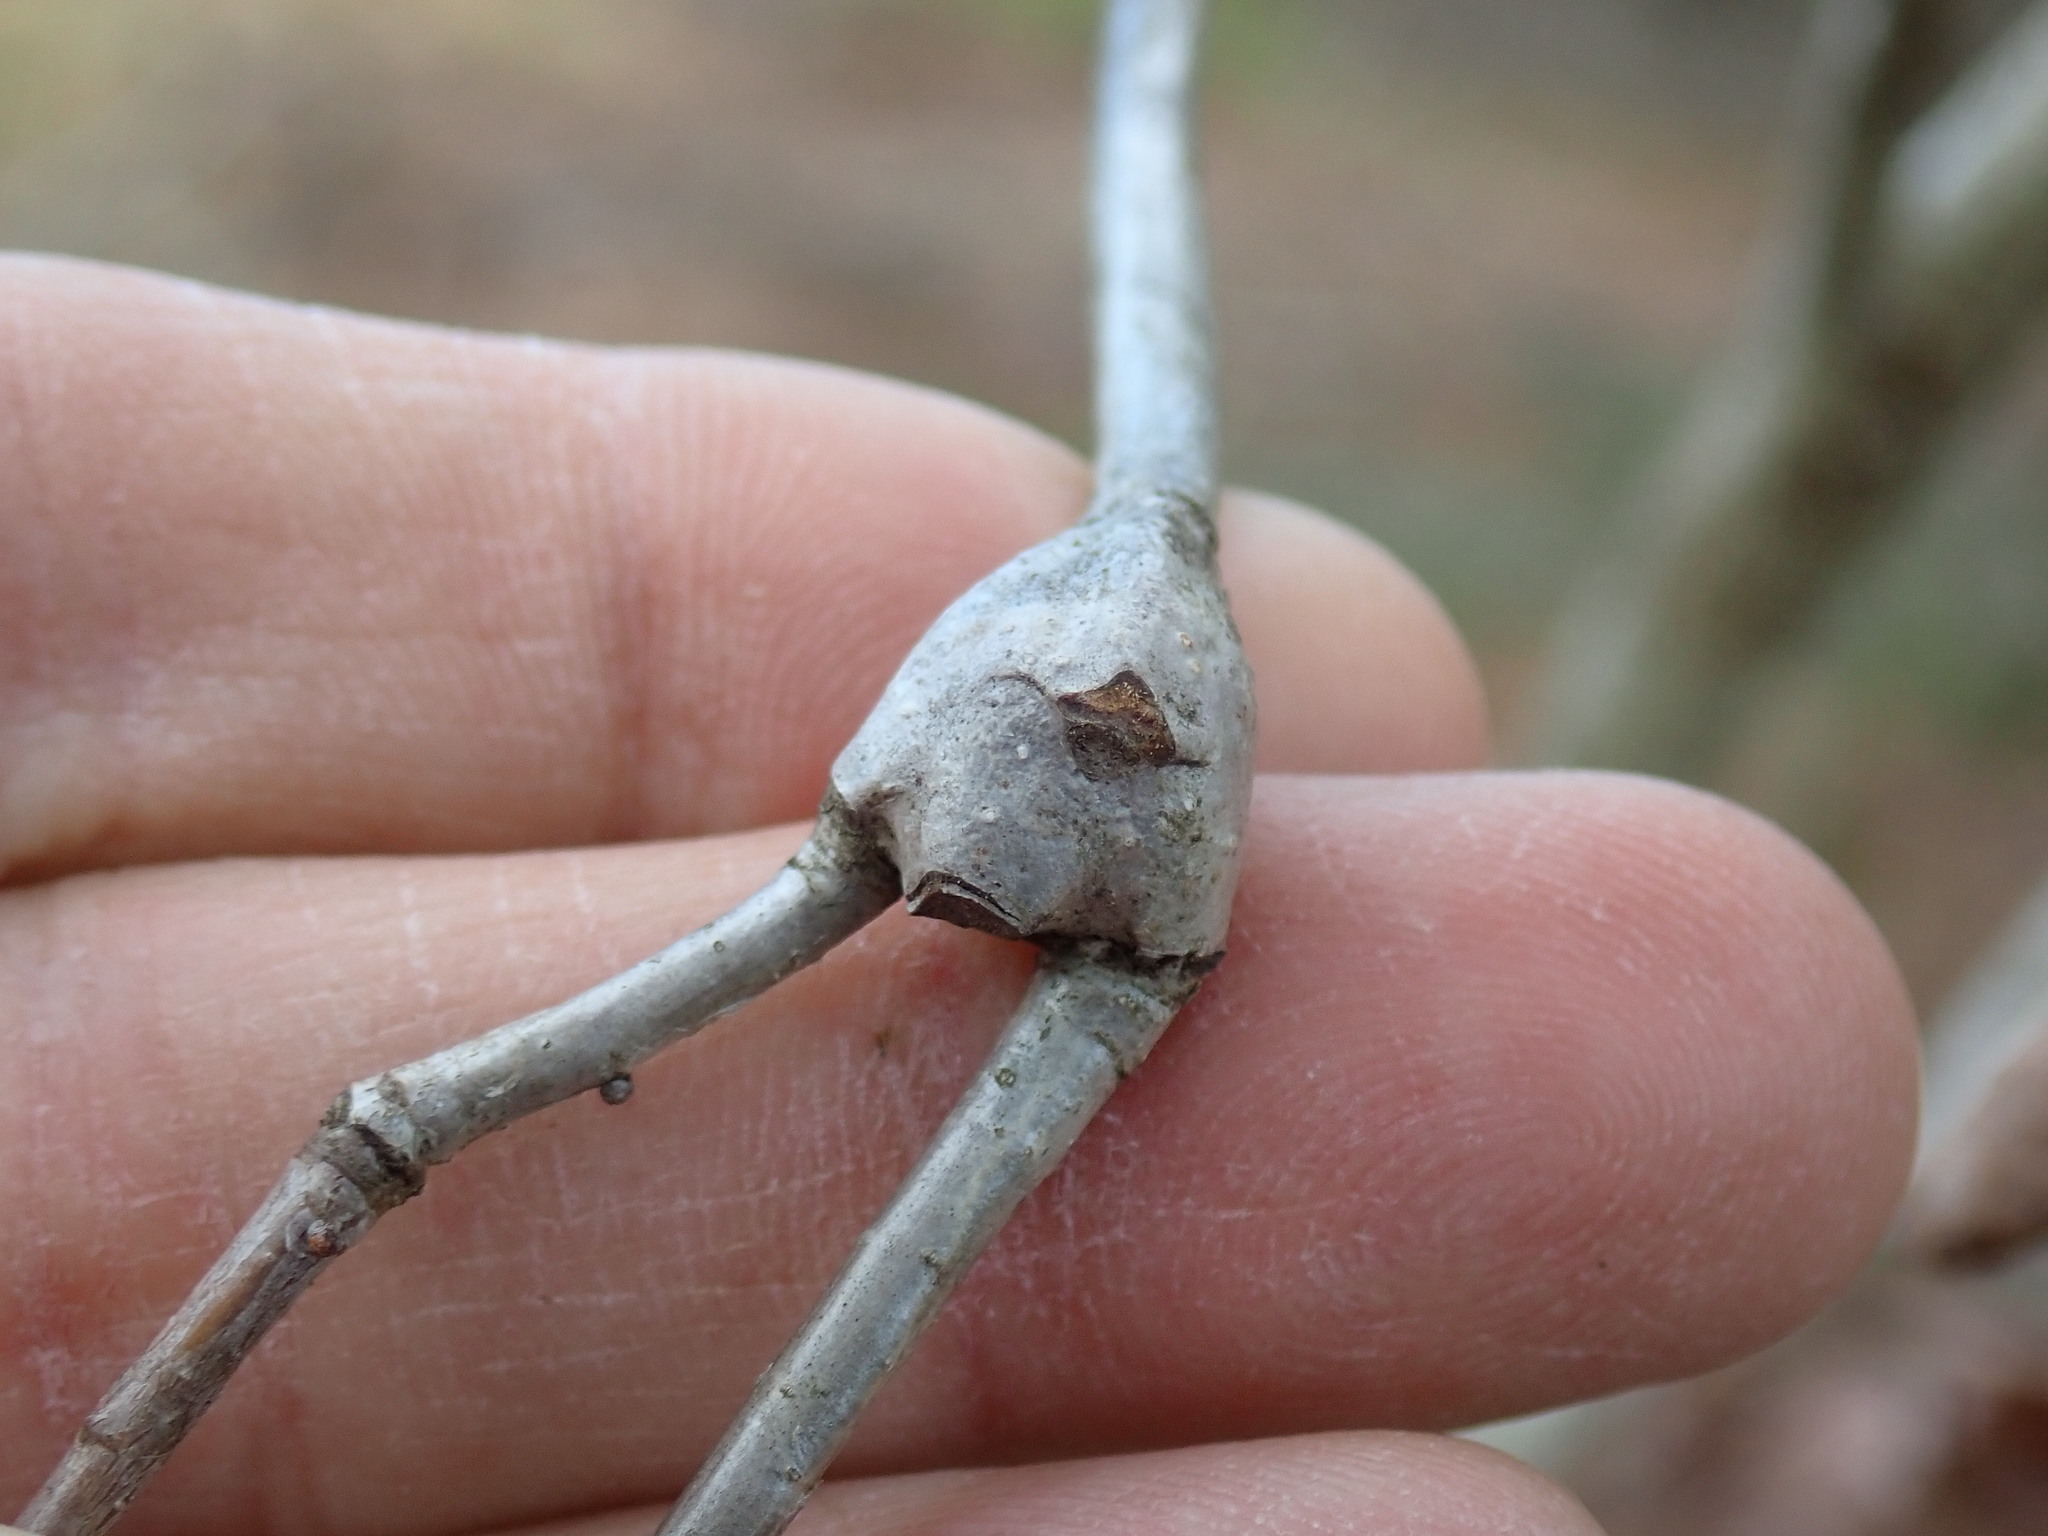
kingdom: Animalia
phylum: Arthropoda
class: Insecta
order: Hymenoptera
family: Cynipidae
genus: Callirhytis
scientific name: Callirhytis clavula
